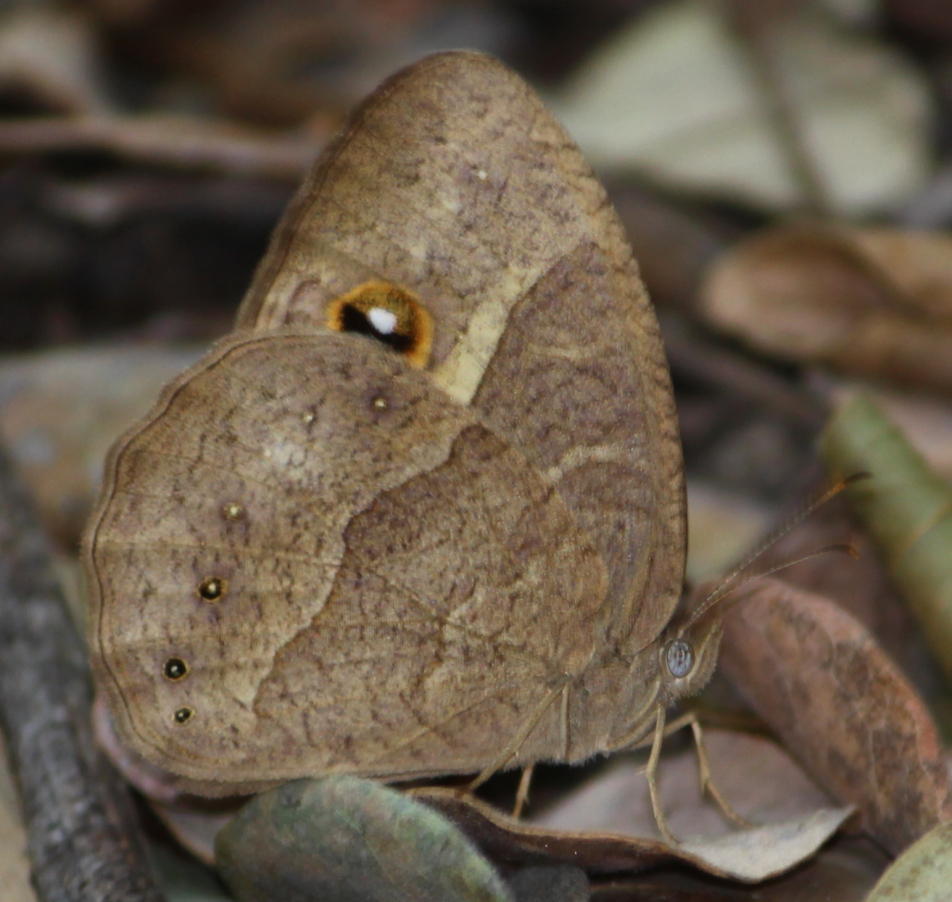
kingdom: Animalia
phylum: Arthropoda
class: Insecta
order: Lepidoptera
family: Nymphalidae
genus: Mycalesis
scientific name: Mycalesis anynana
